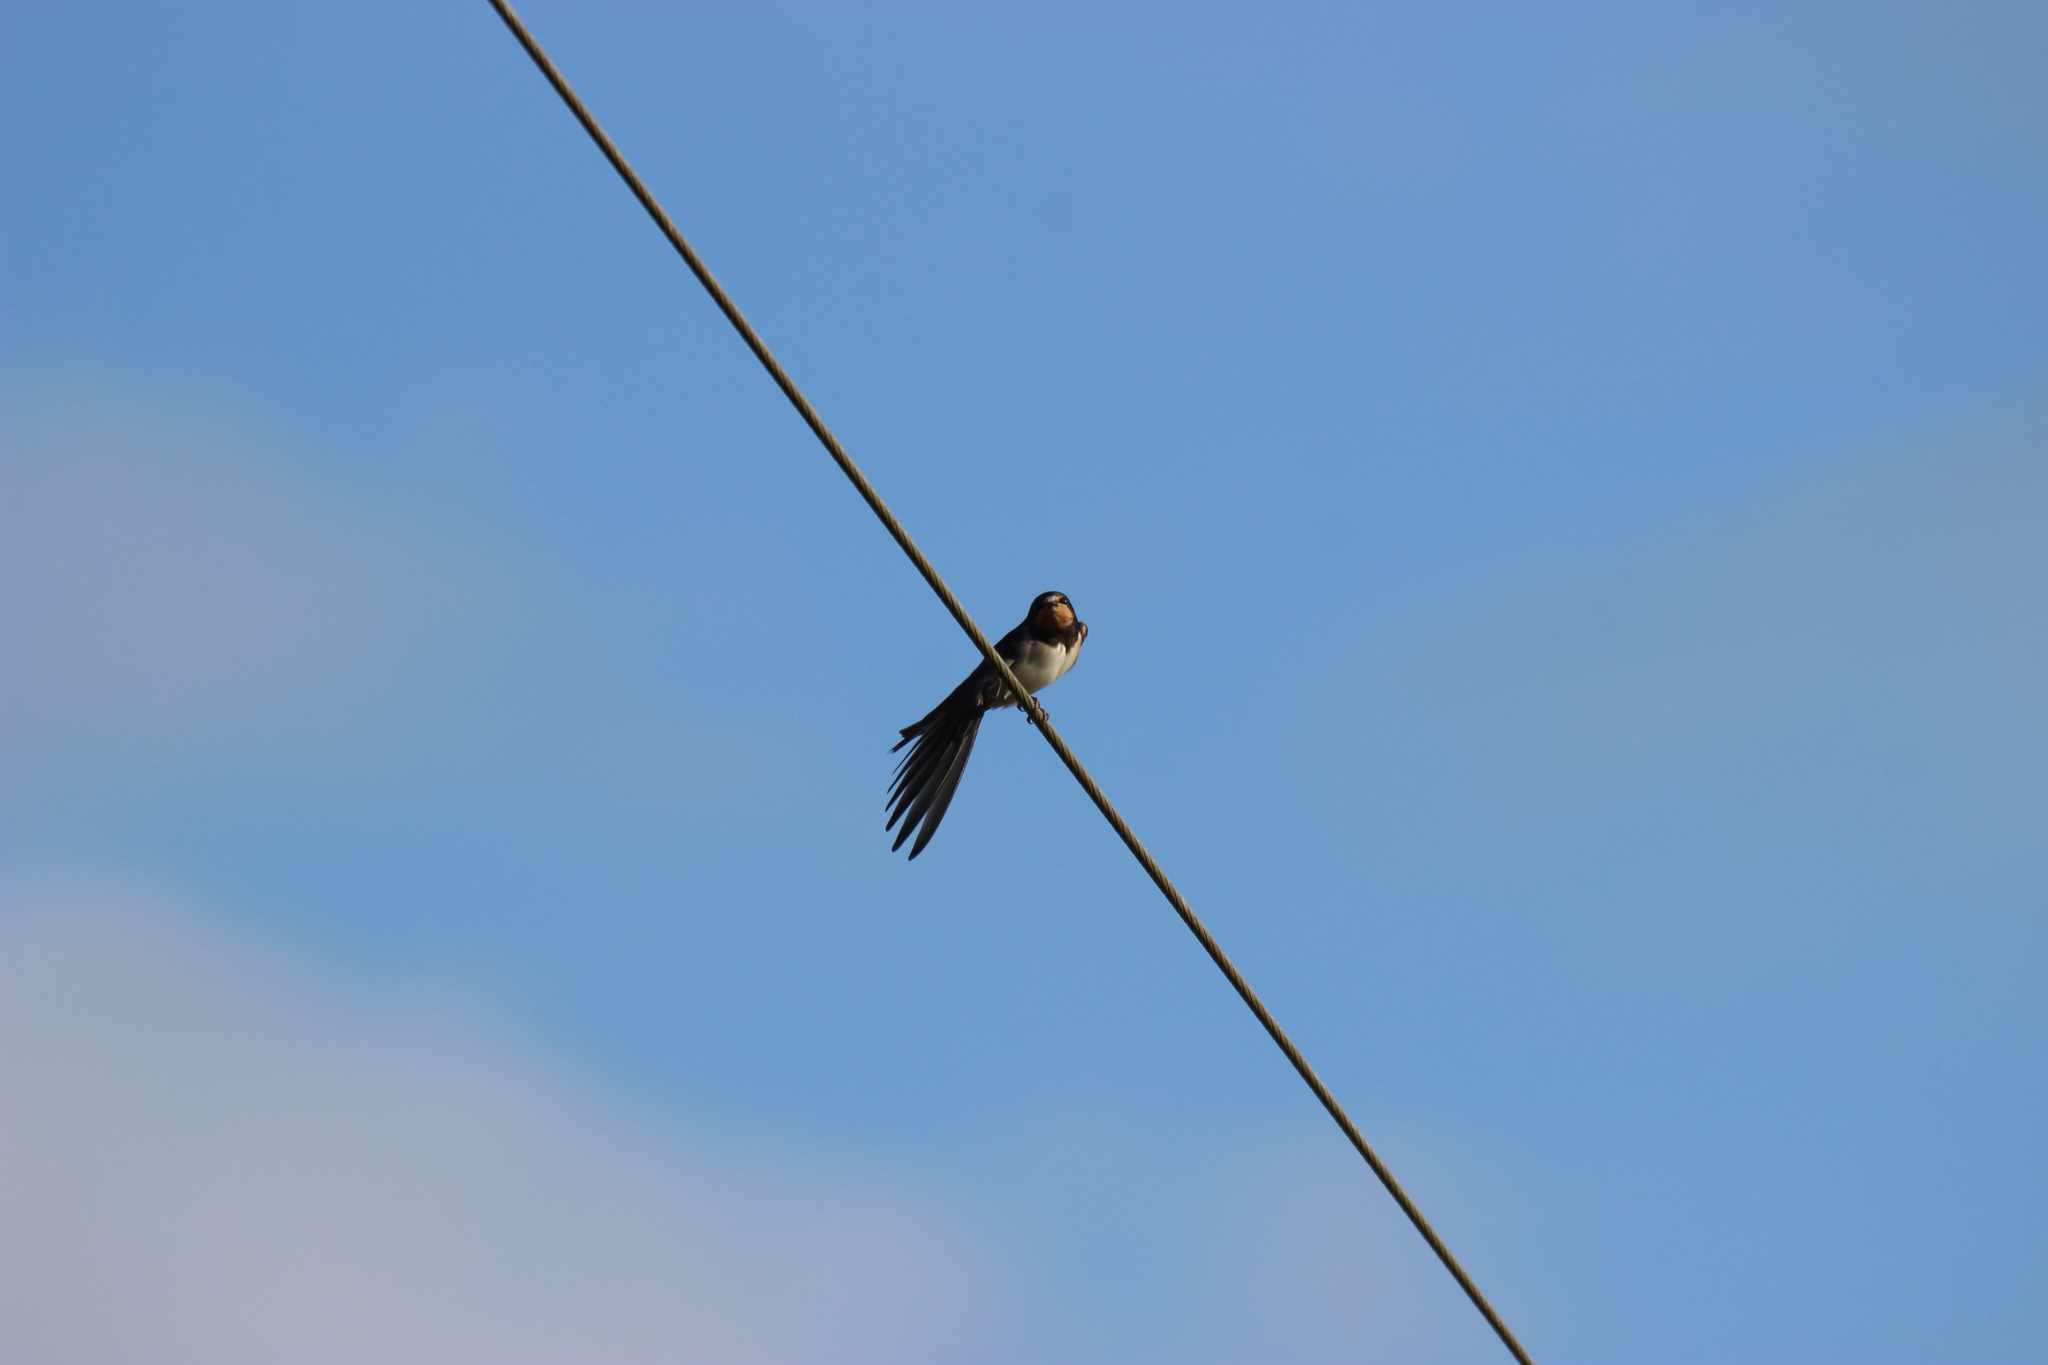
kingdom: Animalia
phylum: Chordata
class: Aves
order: Passeriformes
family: Hirundinidae
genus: Hirundo
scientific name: Hirundo rustica
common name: Barn swallow
